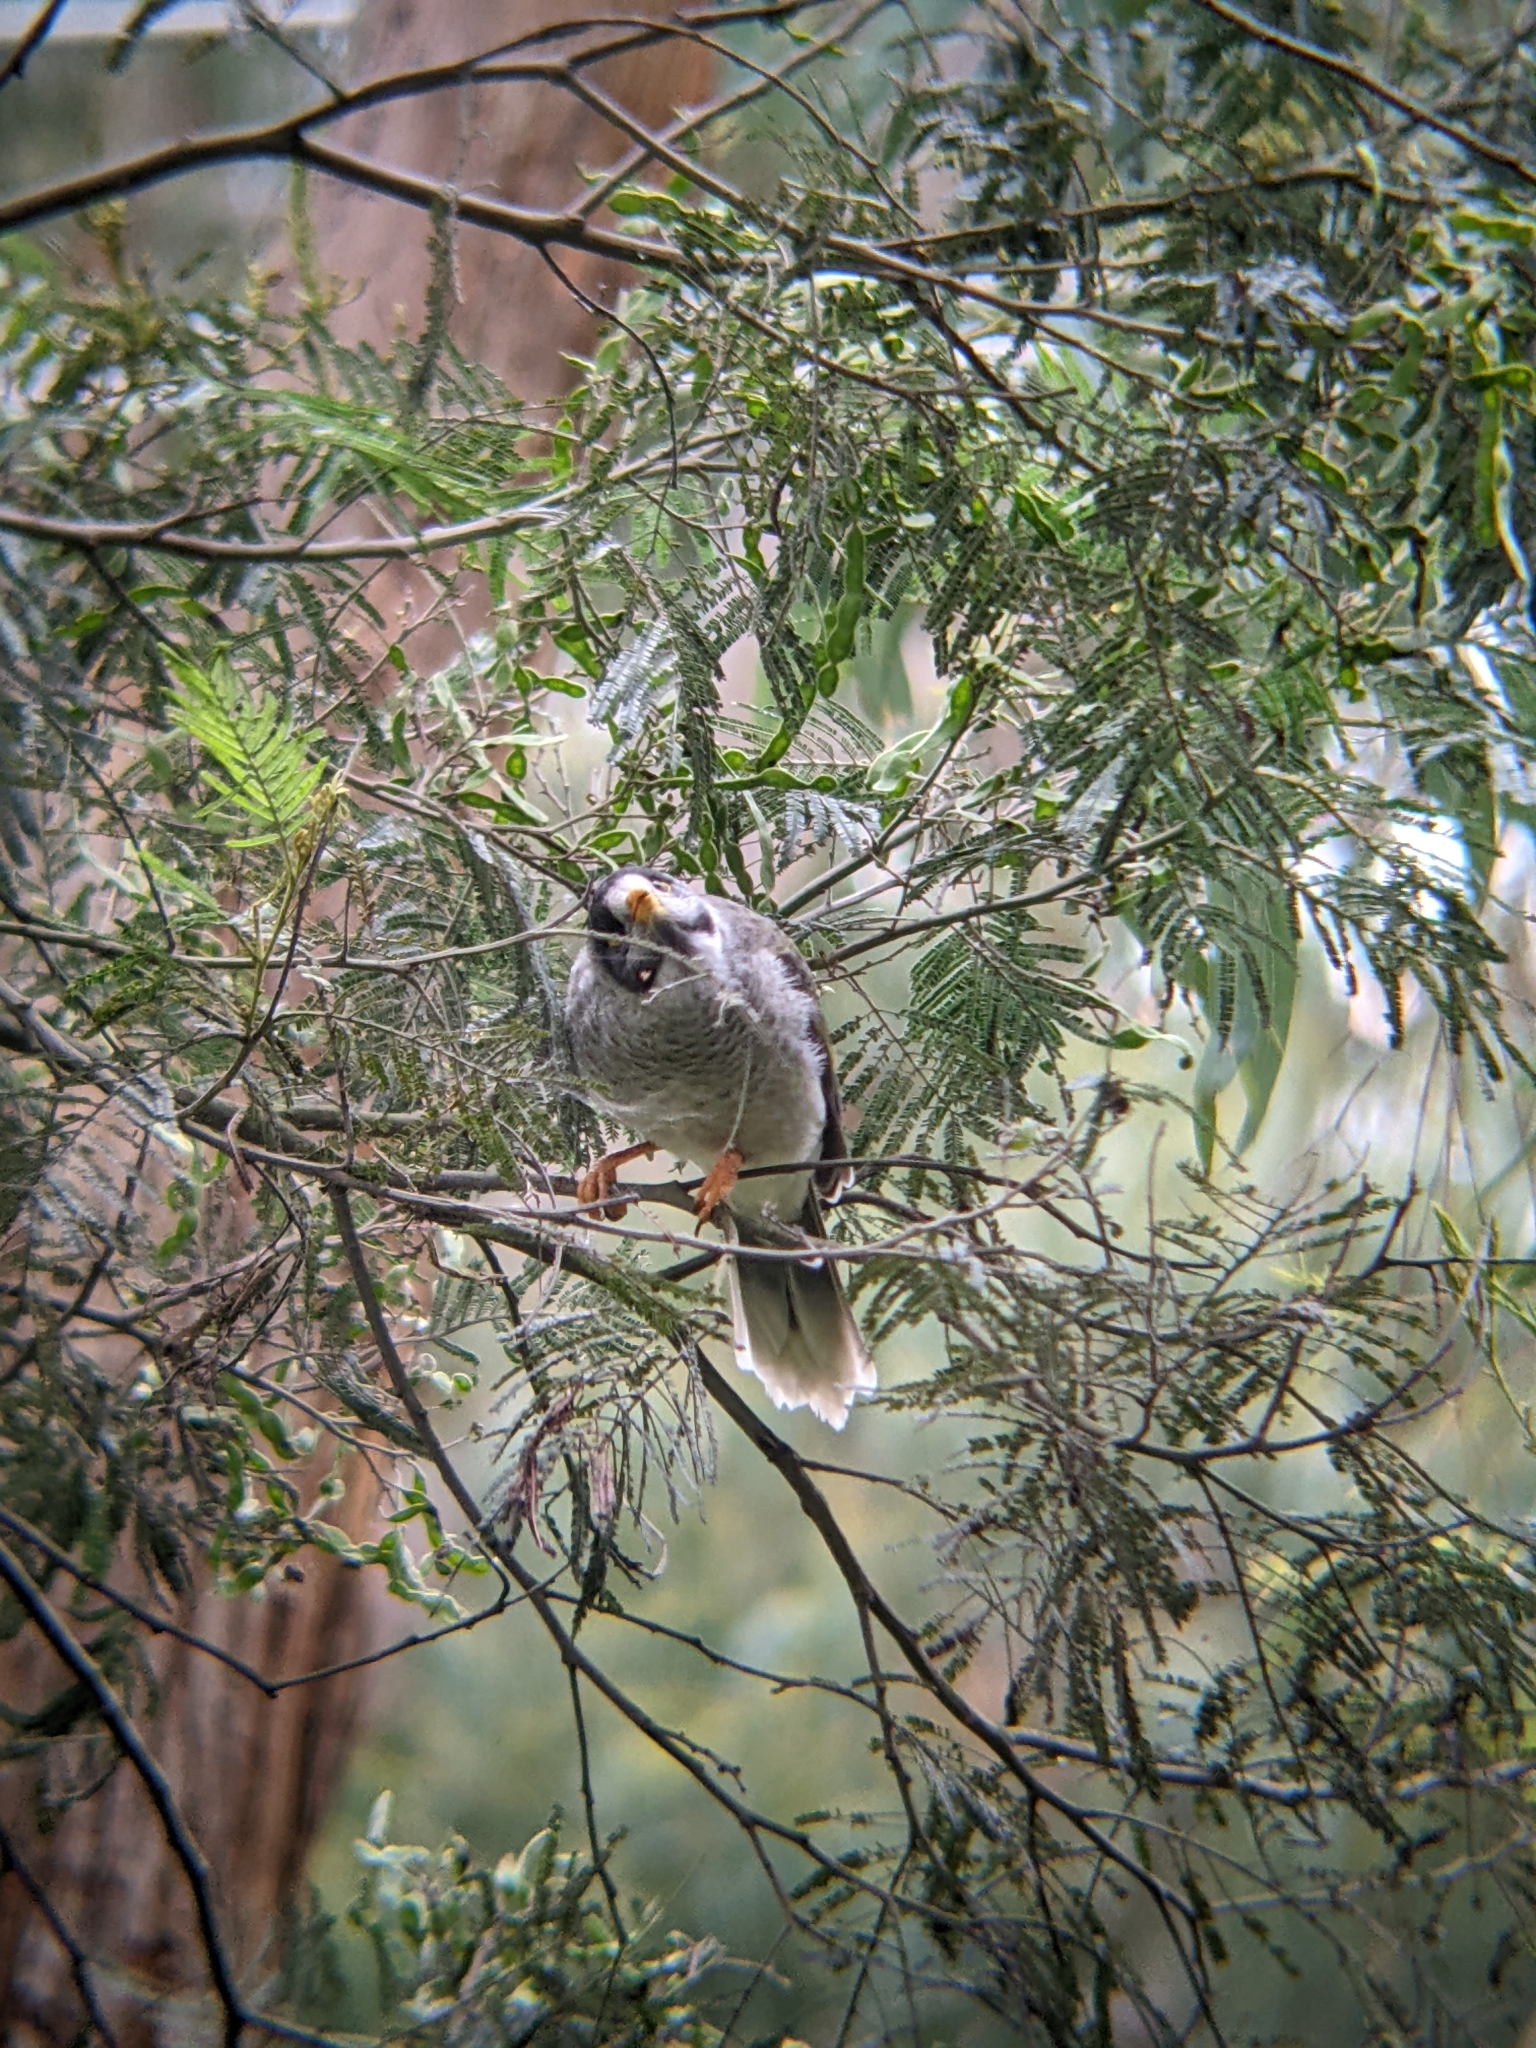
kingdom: Animalia
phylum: Chordata
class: Aves
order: Passeriformes
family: Meliphagidae
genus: Manorina
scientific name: Manorina melanocephala
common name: Noisy miner
